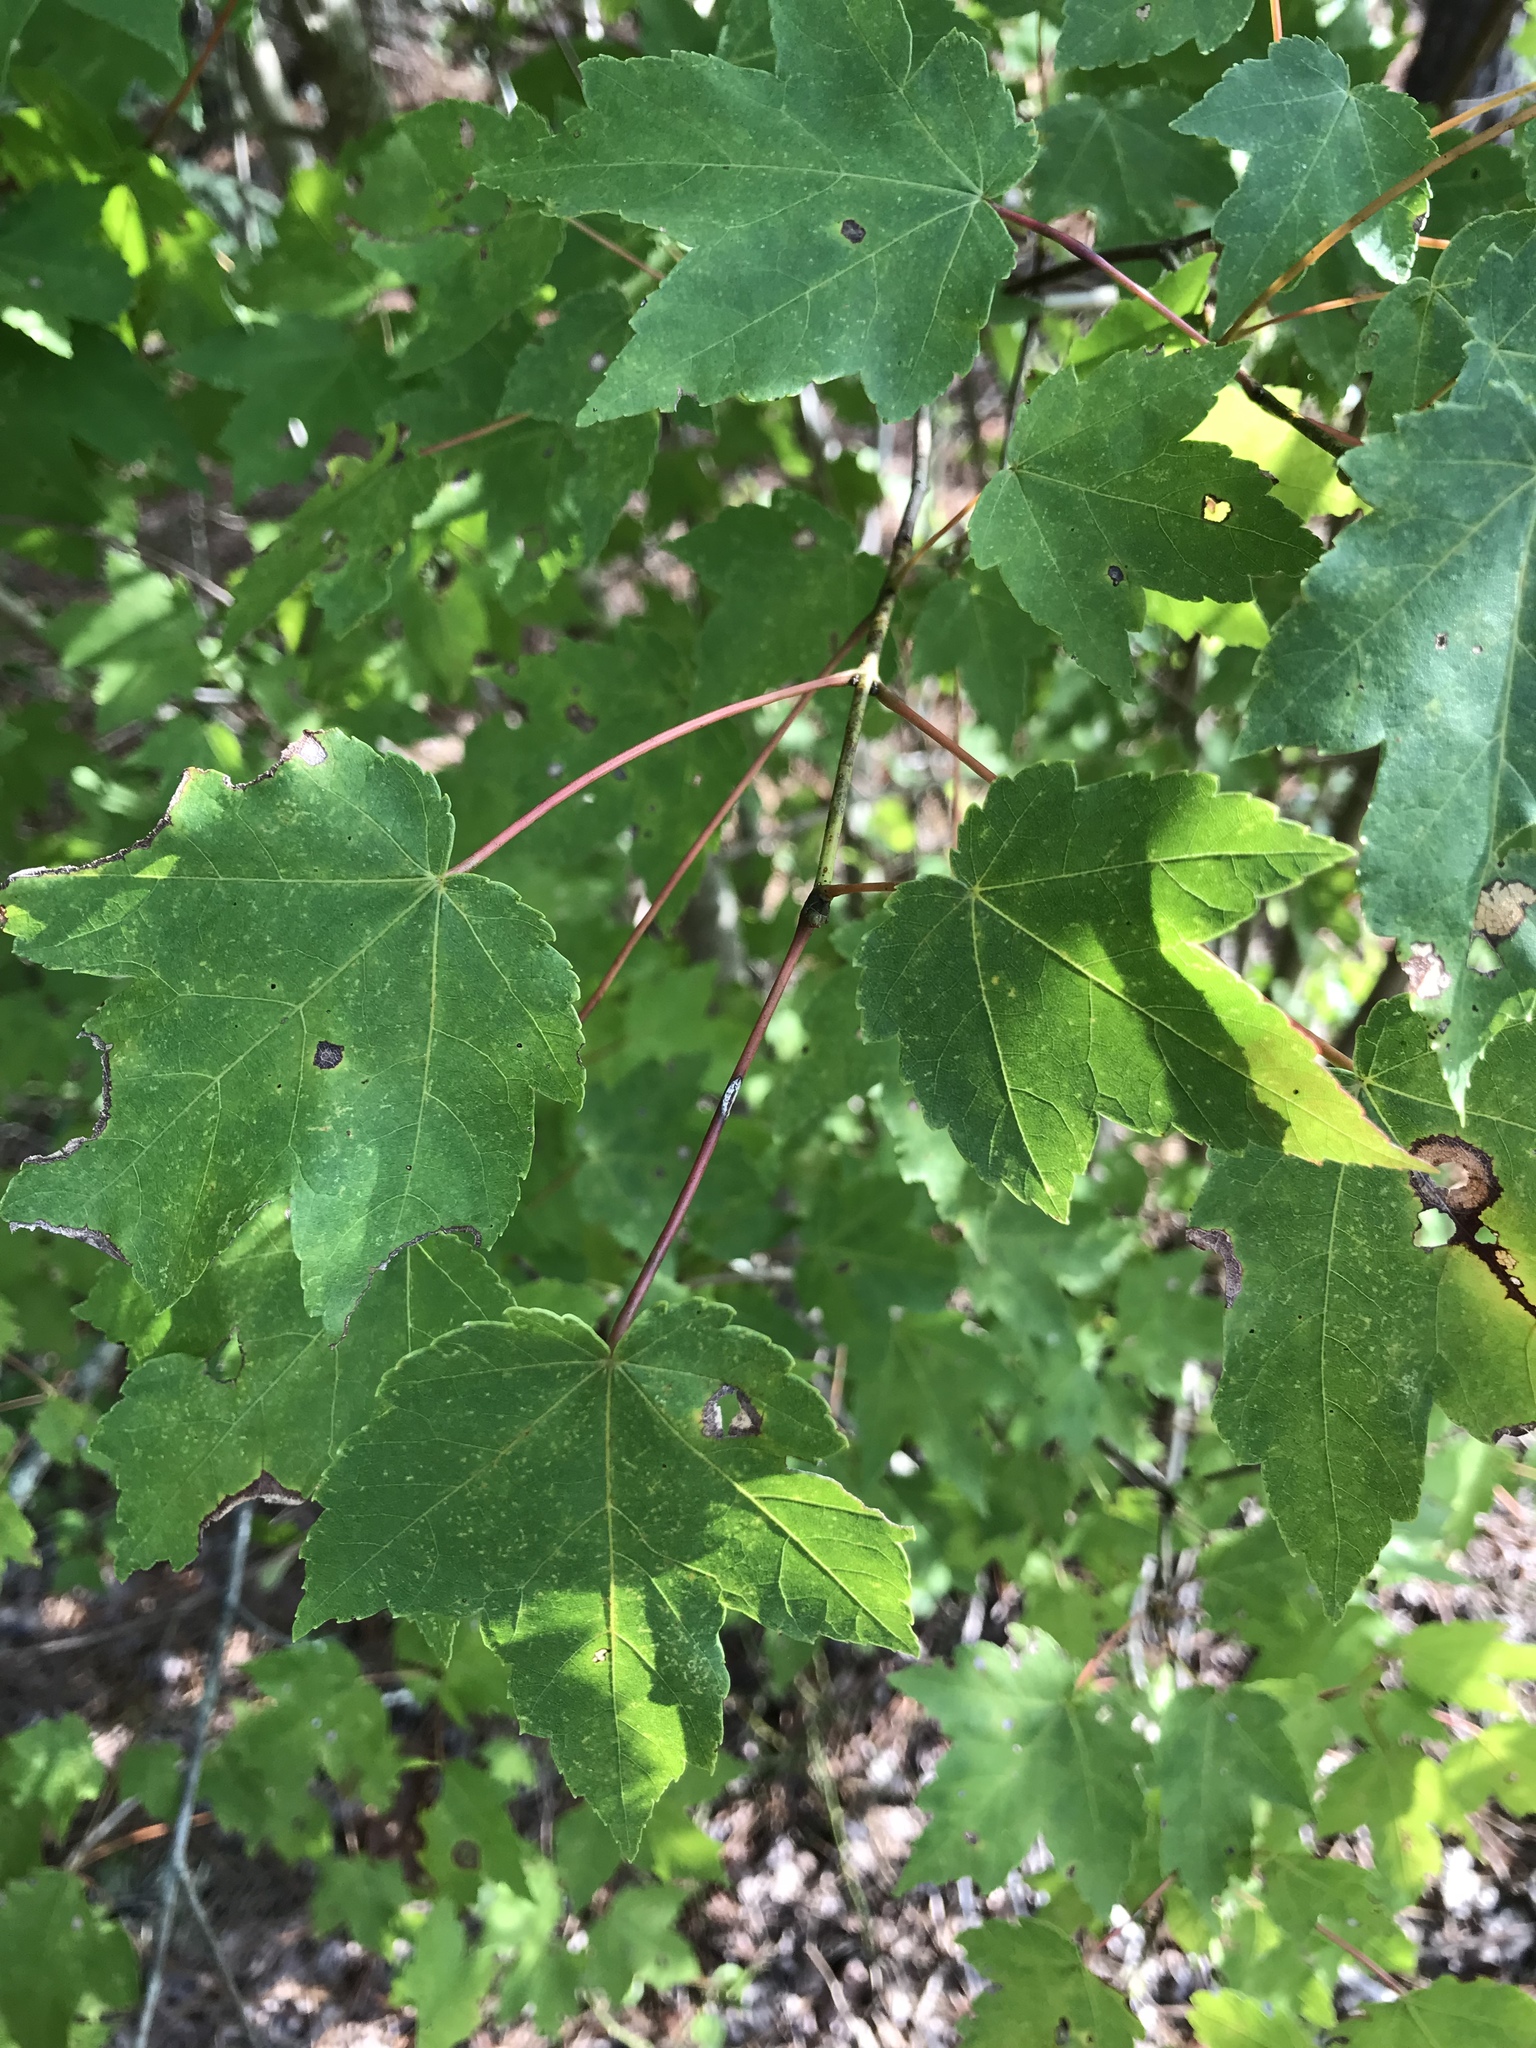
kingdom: Plantae
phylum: Tracheophyta
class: Magnoliopsida
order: Sapindales
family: Sapindaceae
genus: Acer
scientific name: Acer rubrum
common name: Red maple
